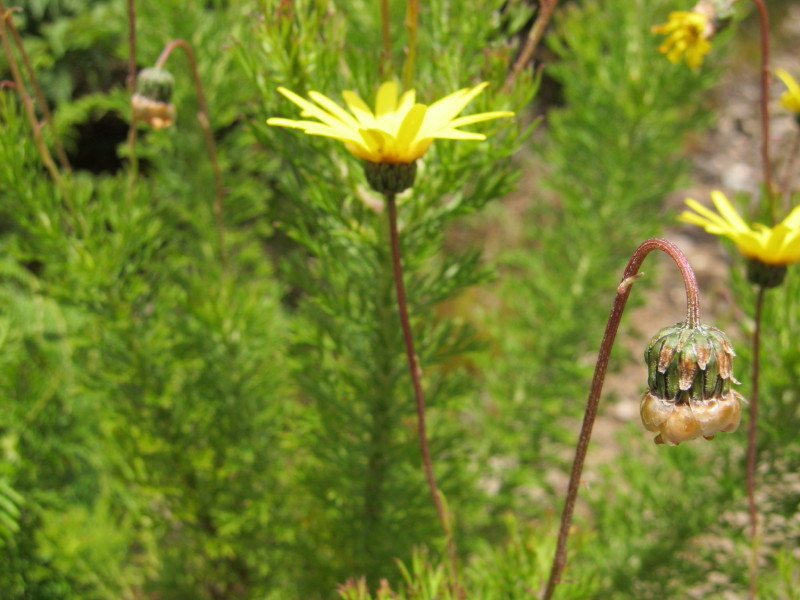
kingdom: Plantae
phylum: Tracheophyta
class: Magnoliopsida
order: Asterales
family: Asteraceae
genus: Ursinia
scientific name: Ursinia anethoides
